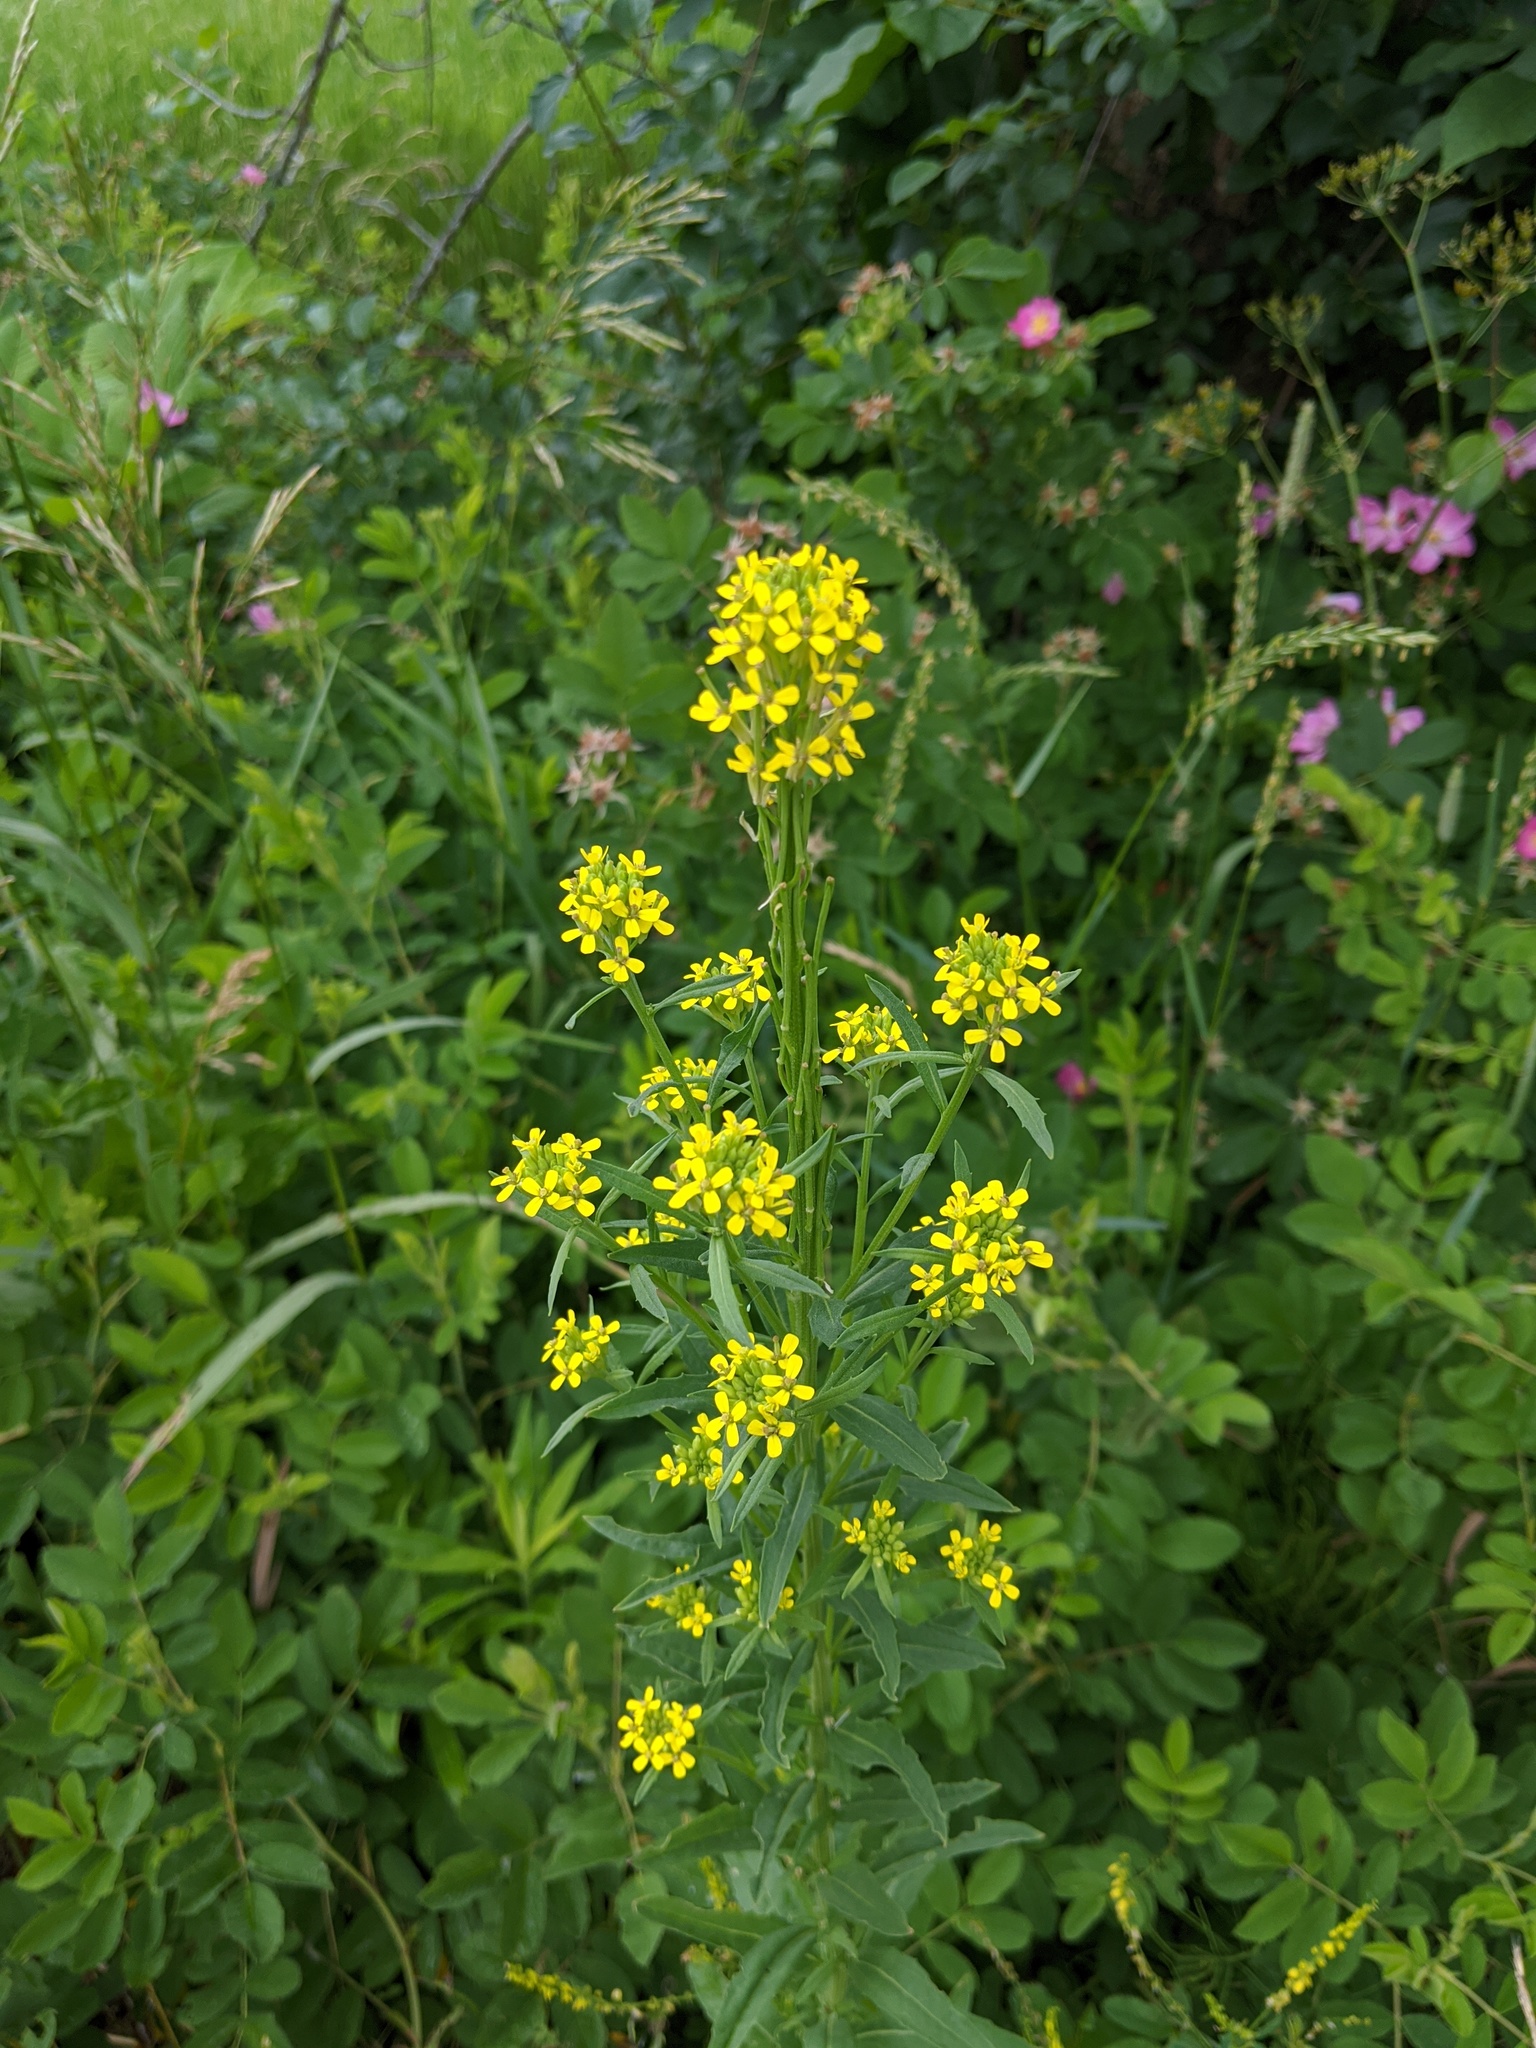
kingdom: Plantae
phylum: Tracheophyta
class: Magnoliopsida
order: Brassicales
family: Brassicaceae
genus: Erysimum
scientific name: Erysimum cheiranthoides
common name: Treacle mustard
